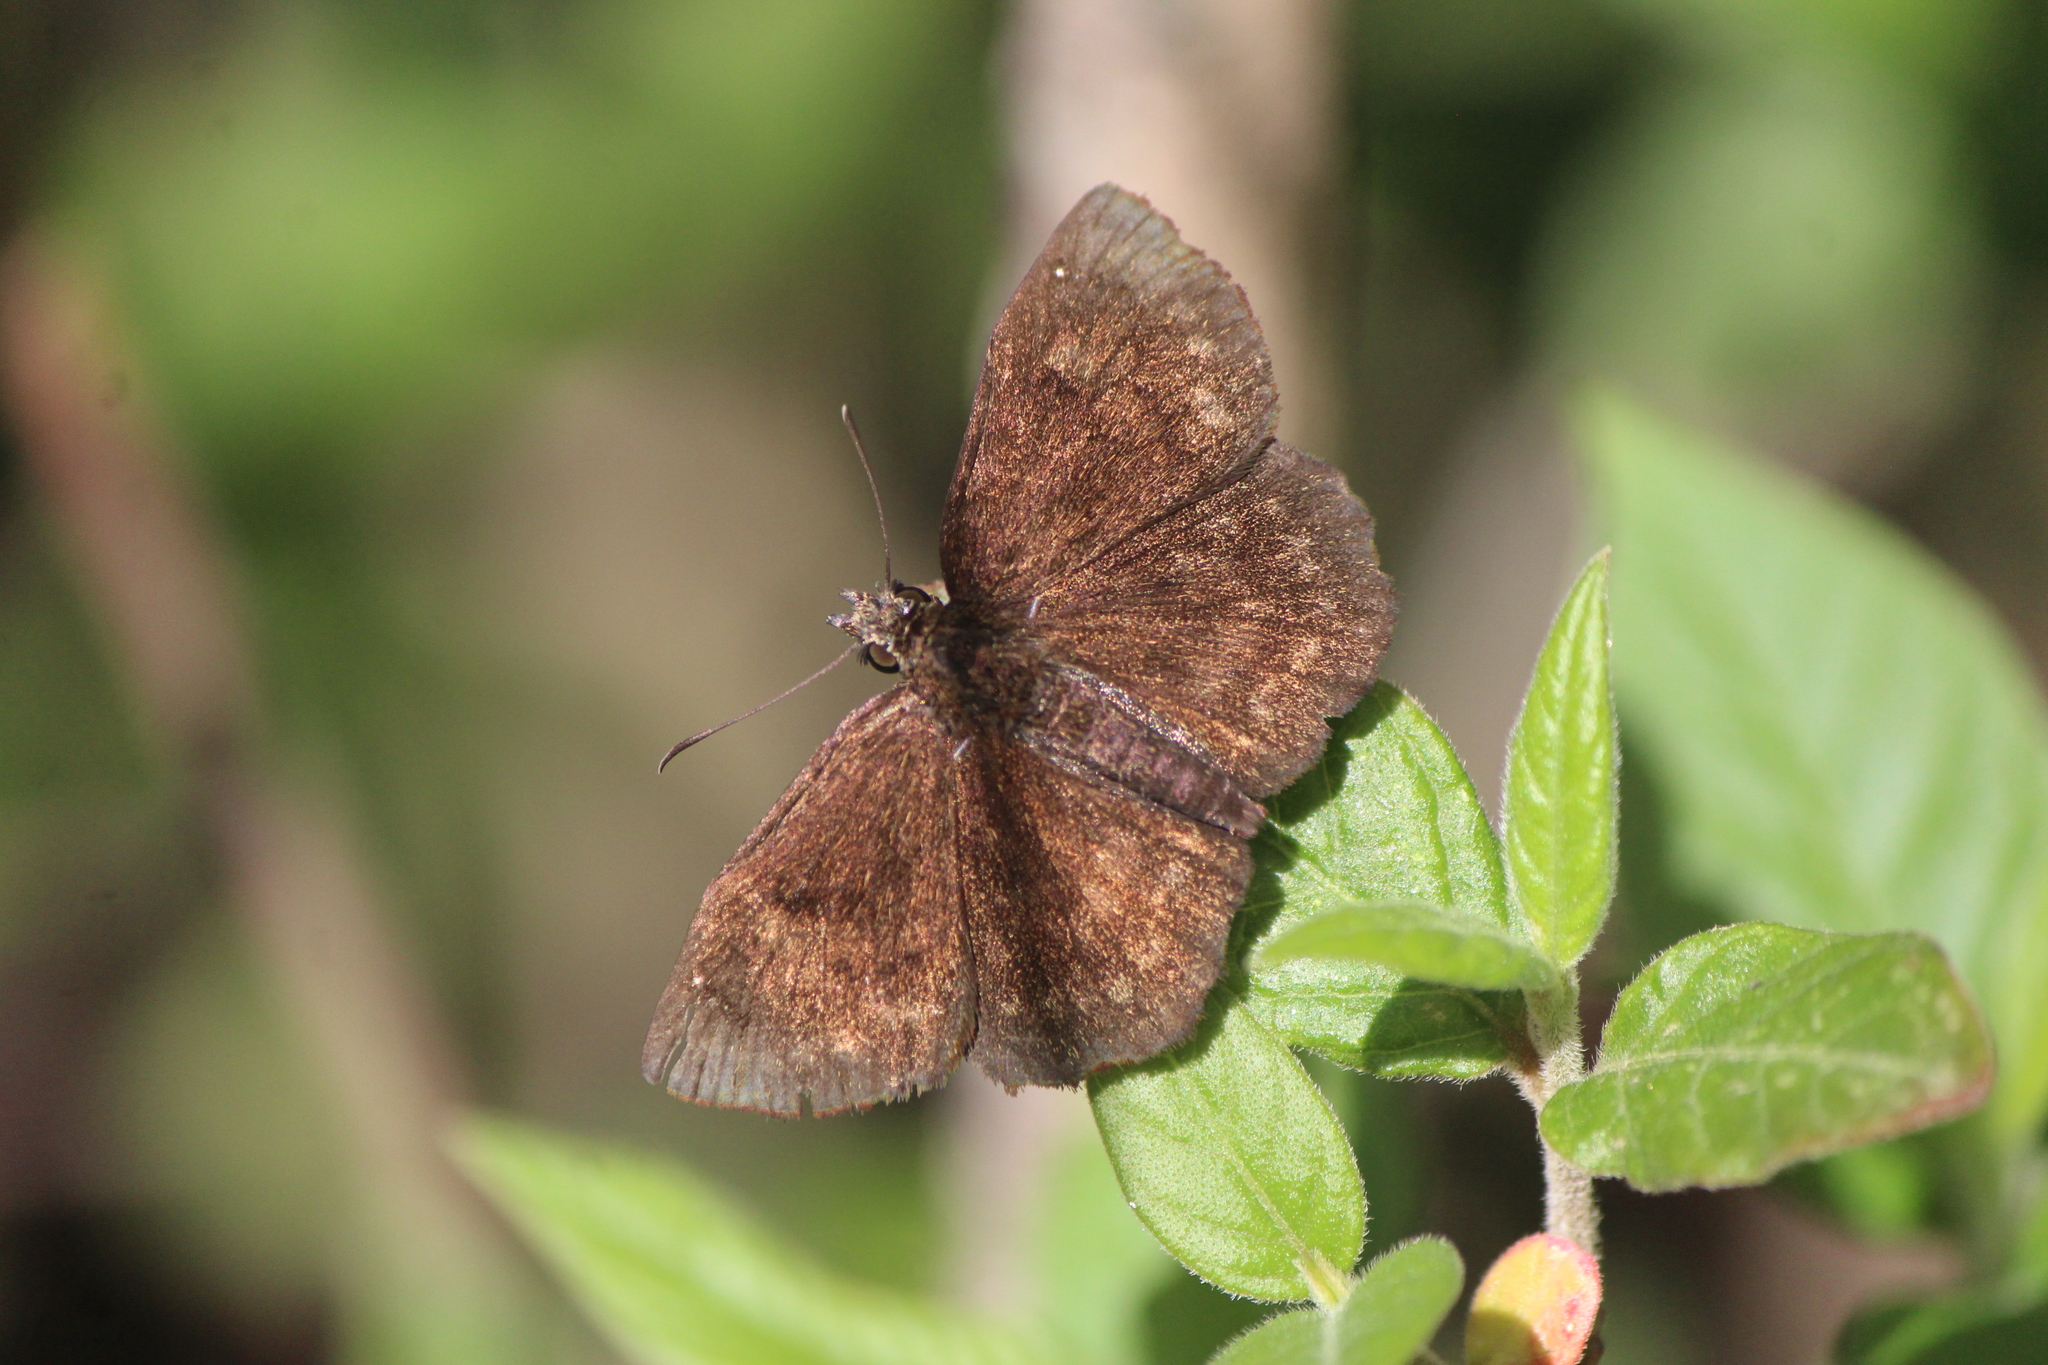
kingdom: Animalia
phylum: Arthropoda
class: Insecta
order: Lepidoptera
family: Hesperiidae
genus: Bolla
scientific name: Bolla subapicatus
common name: Pine-oak bolla
